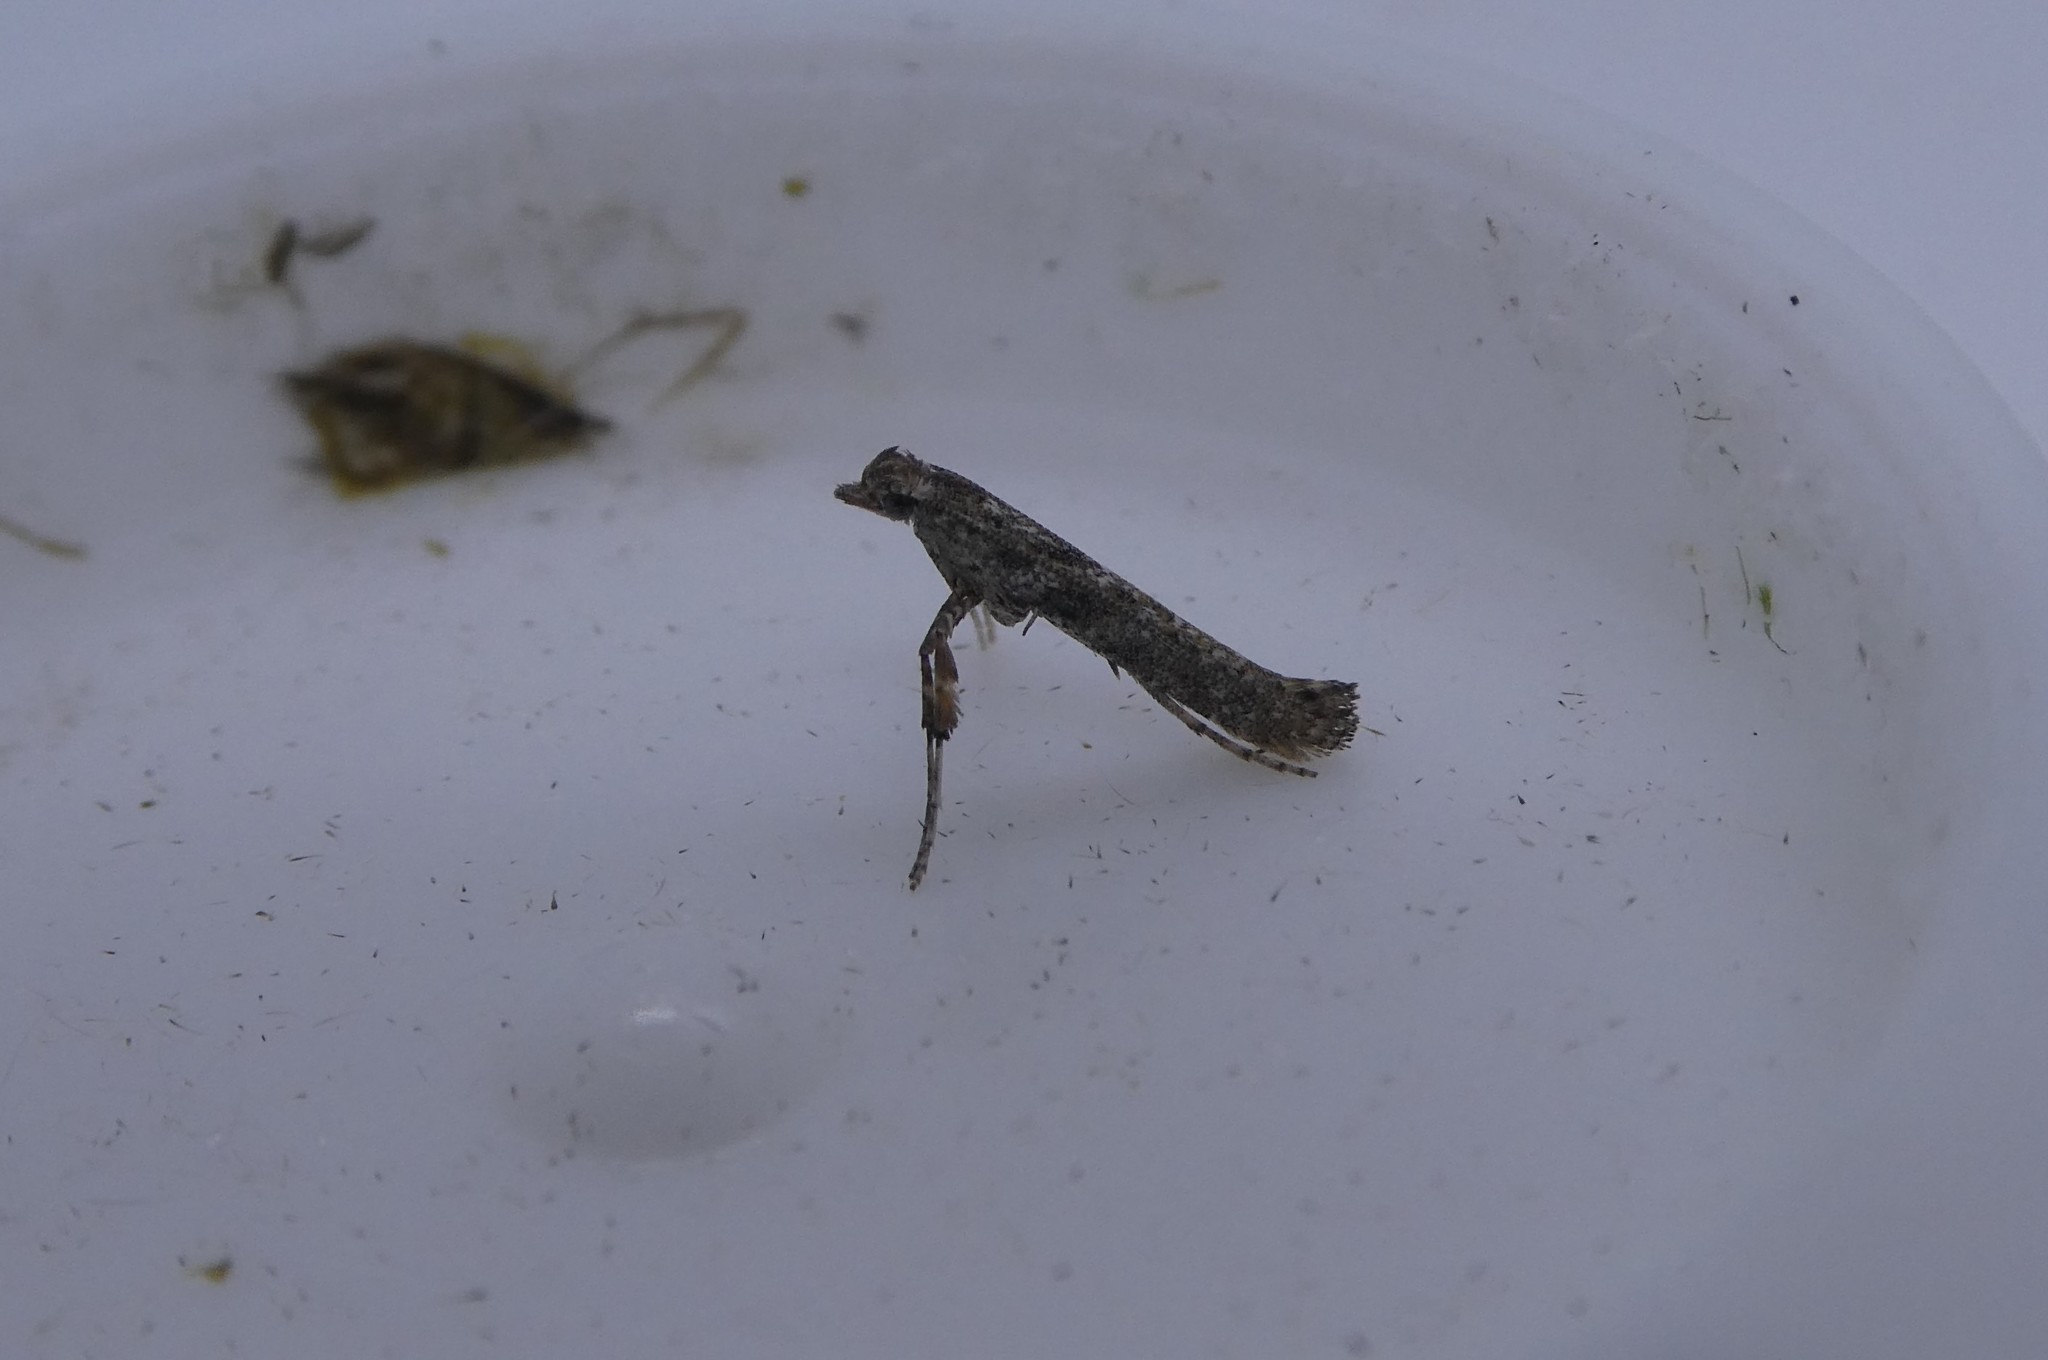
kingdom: Animalia
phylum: Arthropoda
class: Insecta
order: Lepidoptera
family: Gracillariidae
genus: Caloptilia
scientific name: Caloptilia fraxinella
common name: Ash leaf cone roller
